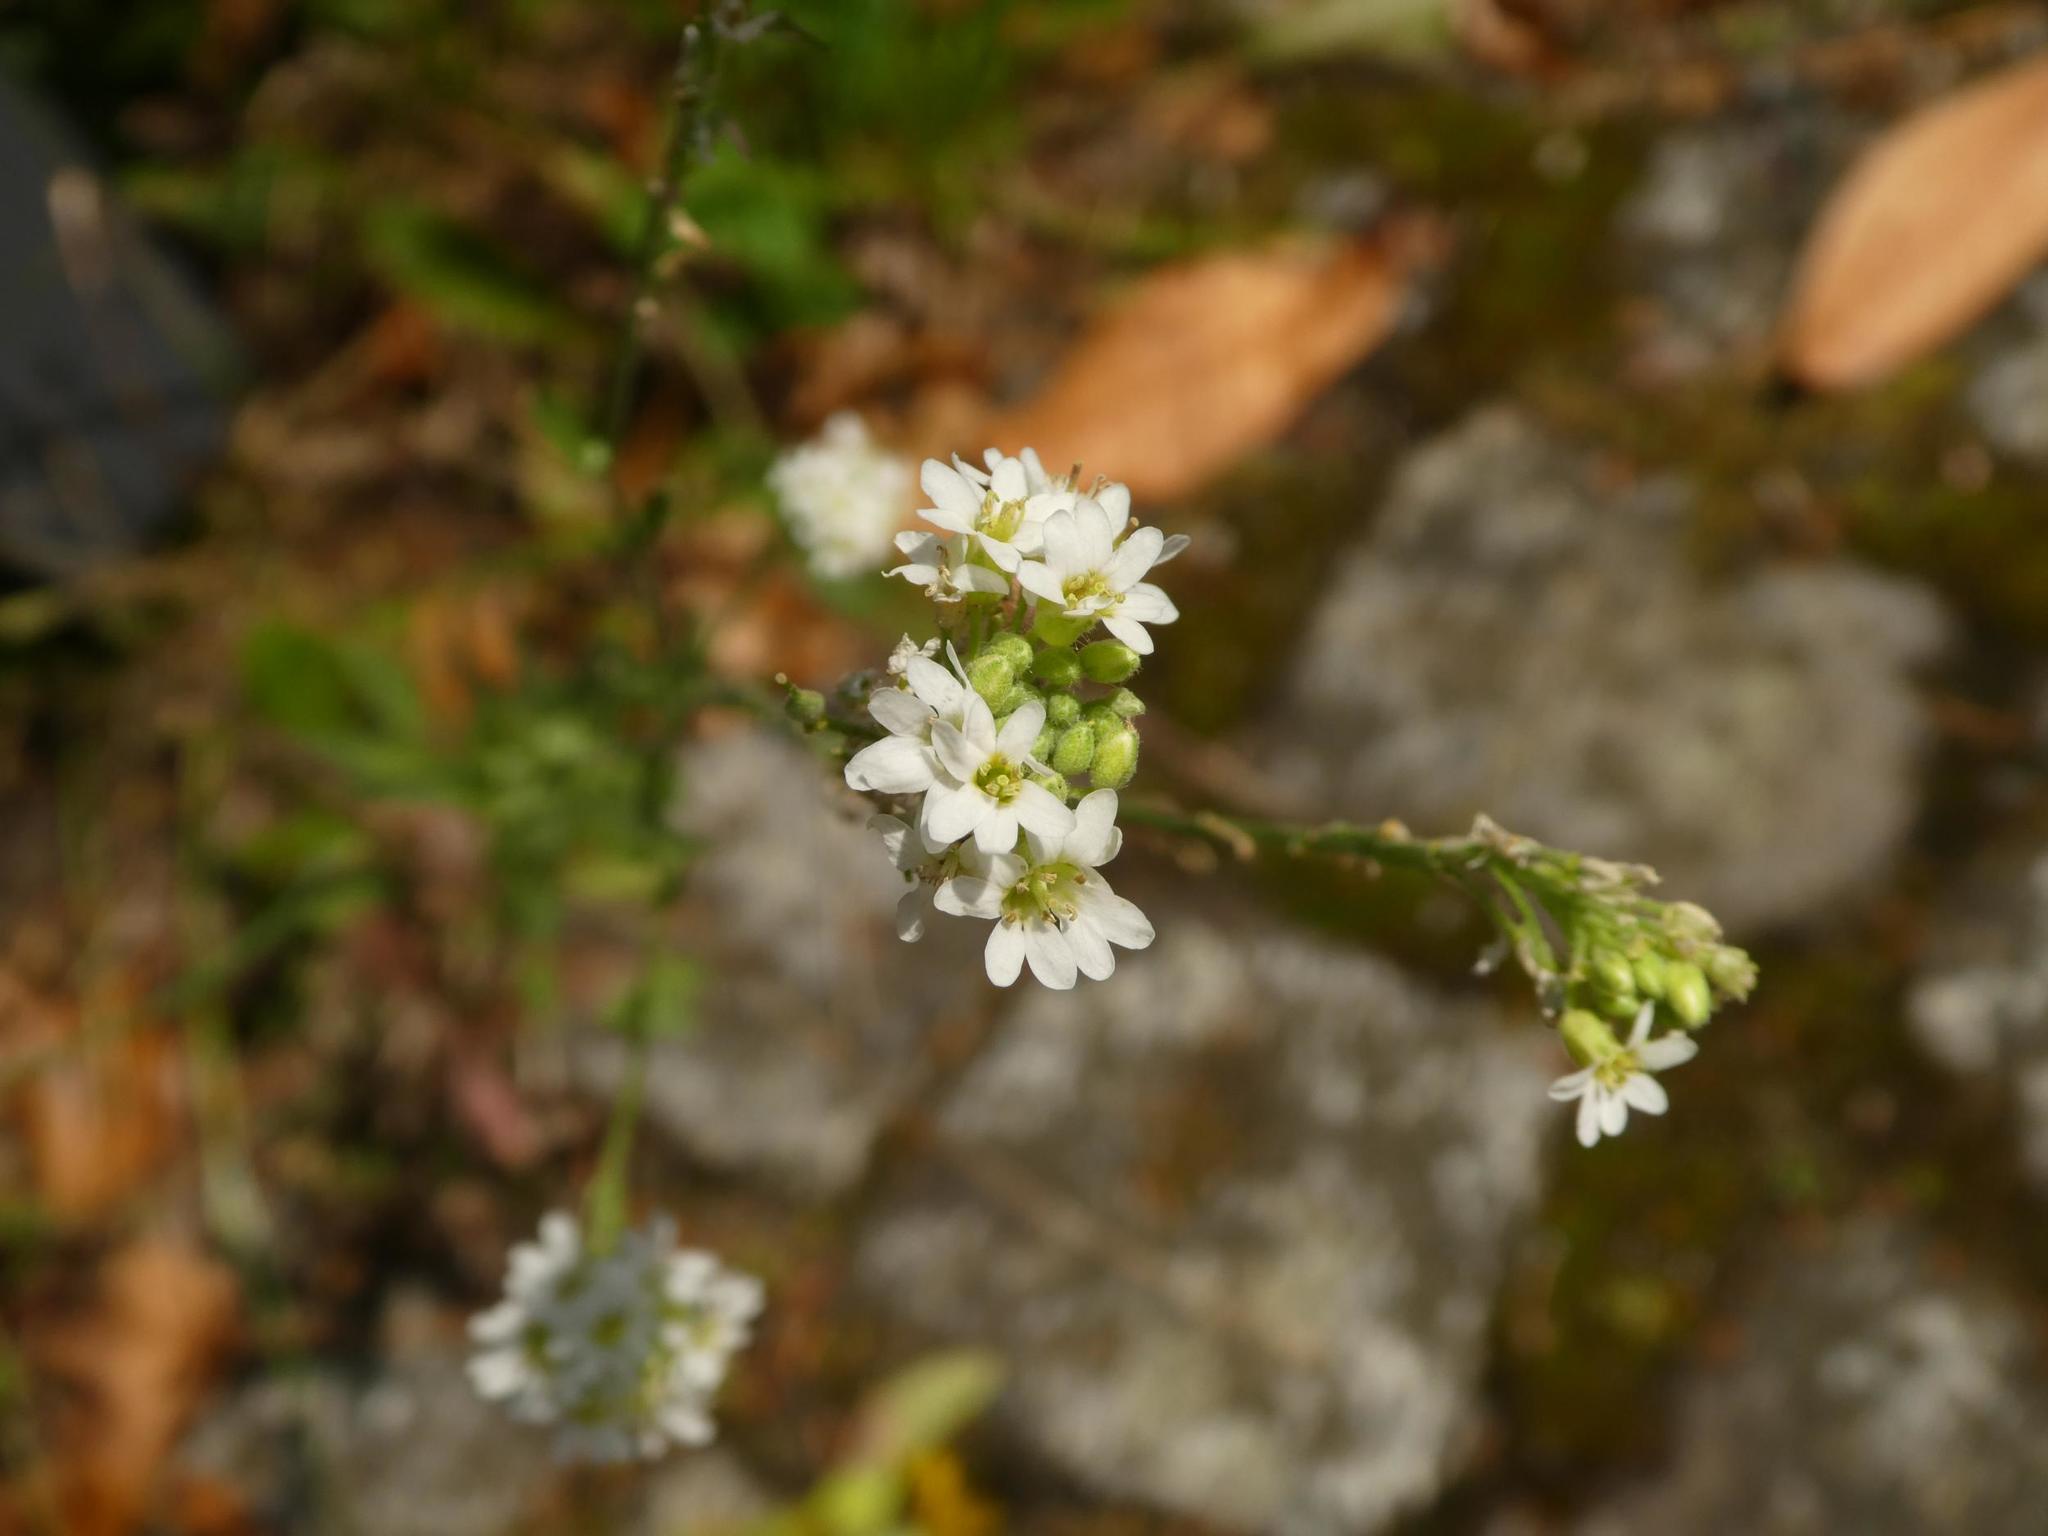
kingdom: Plantae
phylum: Tracheophyta
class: Magnoliopsida
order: Brassicales
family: Brassicaceae
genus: Berteroa
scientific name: Berteroa incana
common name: Hoary alison
